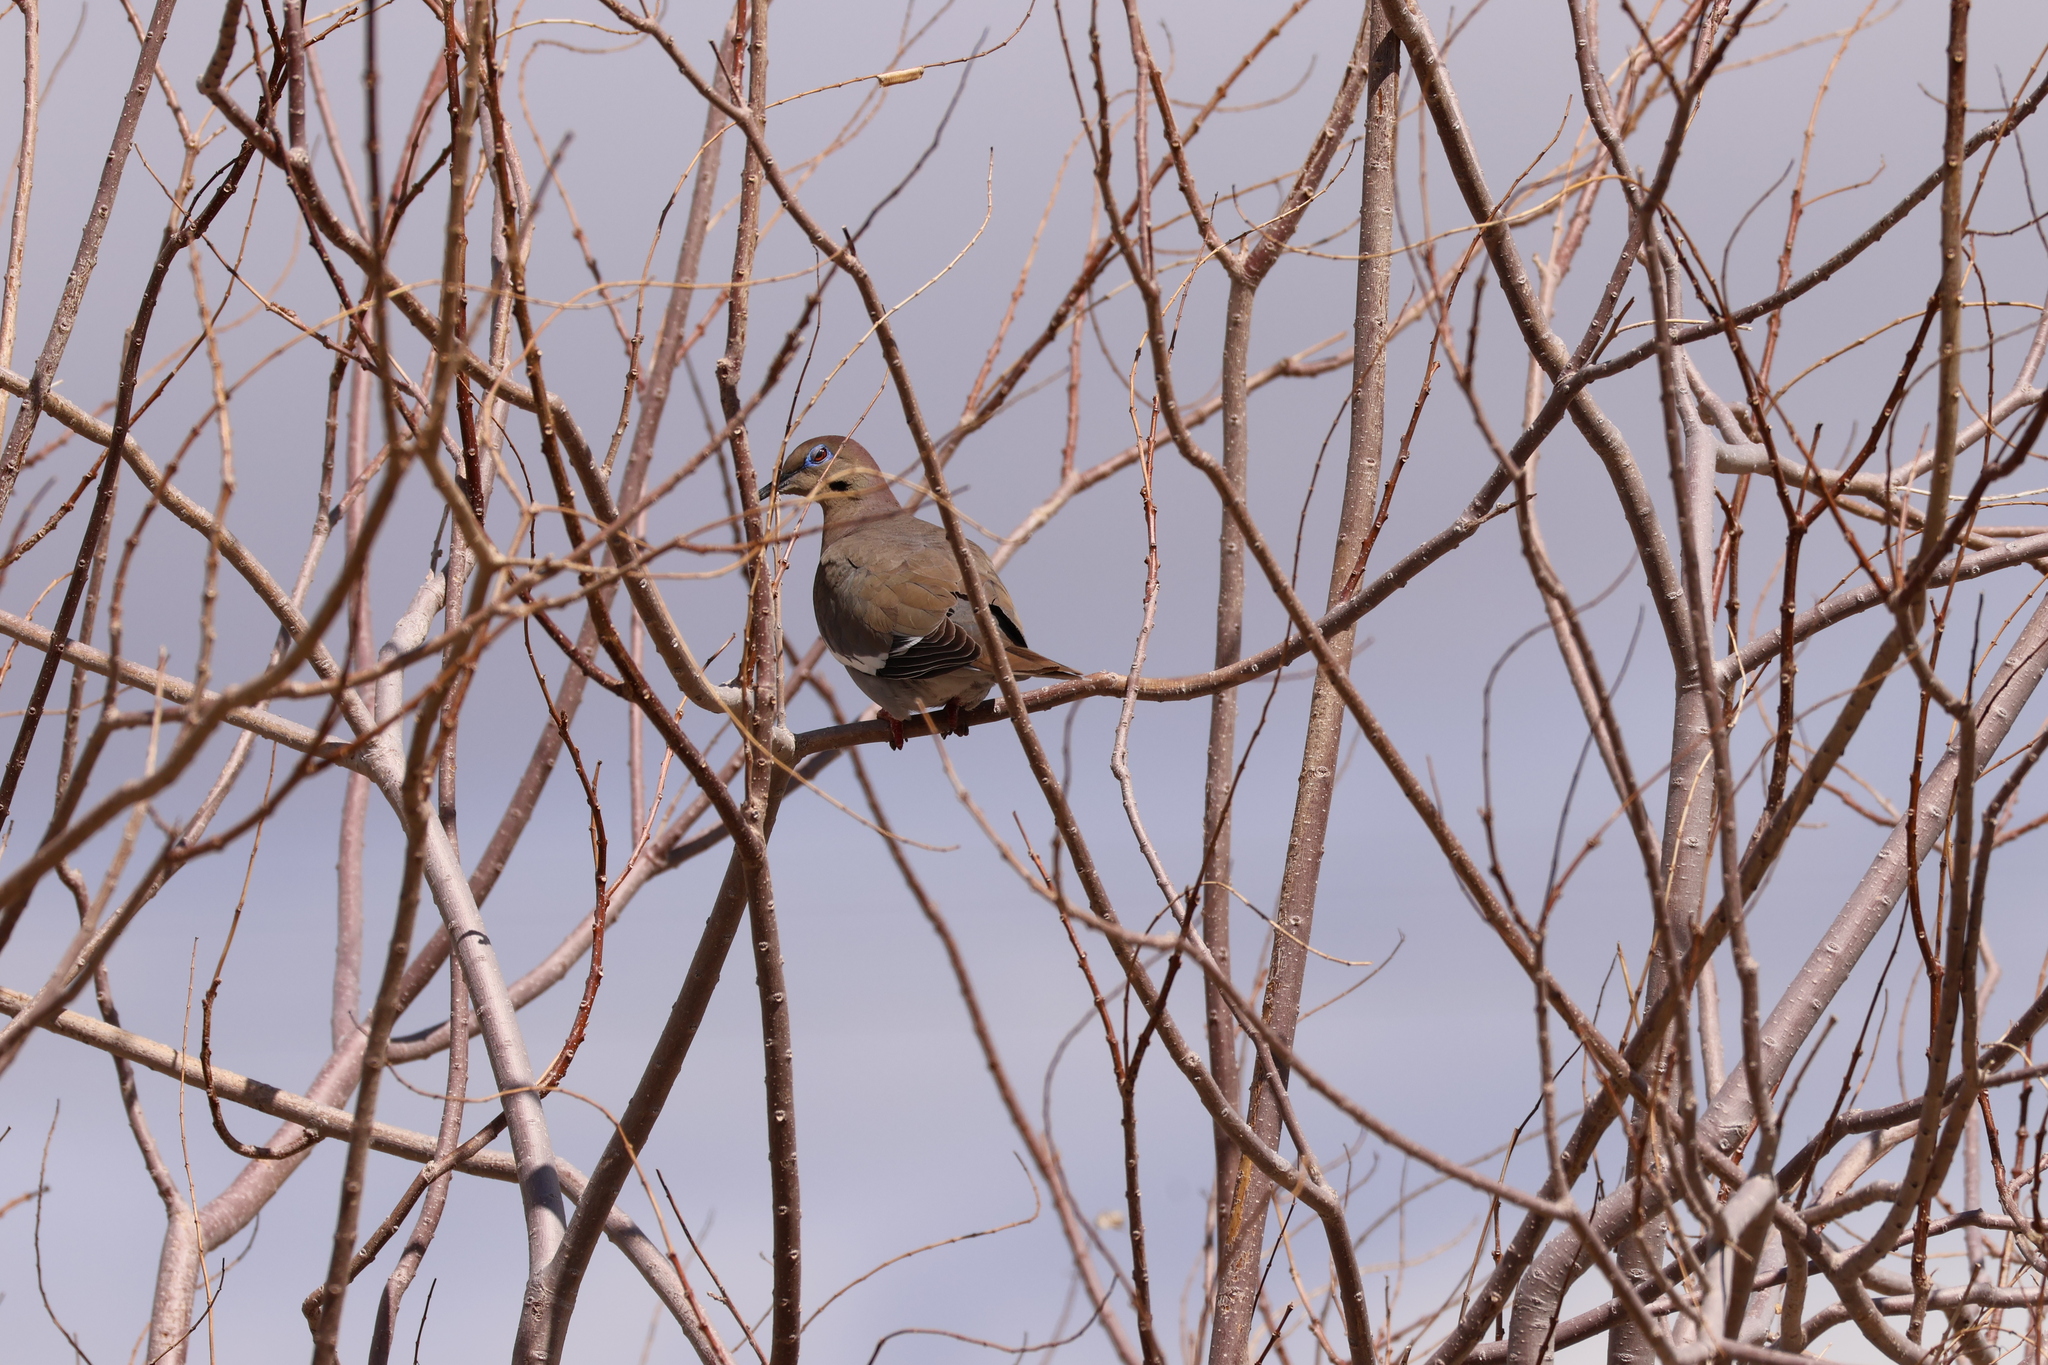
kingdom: Animalia
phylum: Chordata
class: Aves
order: Columbiformes
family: Columbidae
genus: Zenaida
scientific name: Zenaida asiatica
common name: White-winged dove
